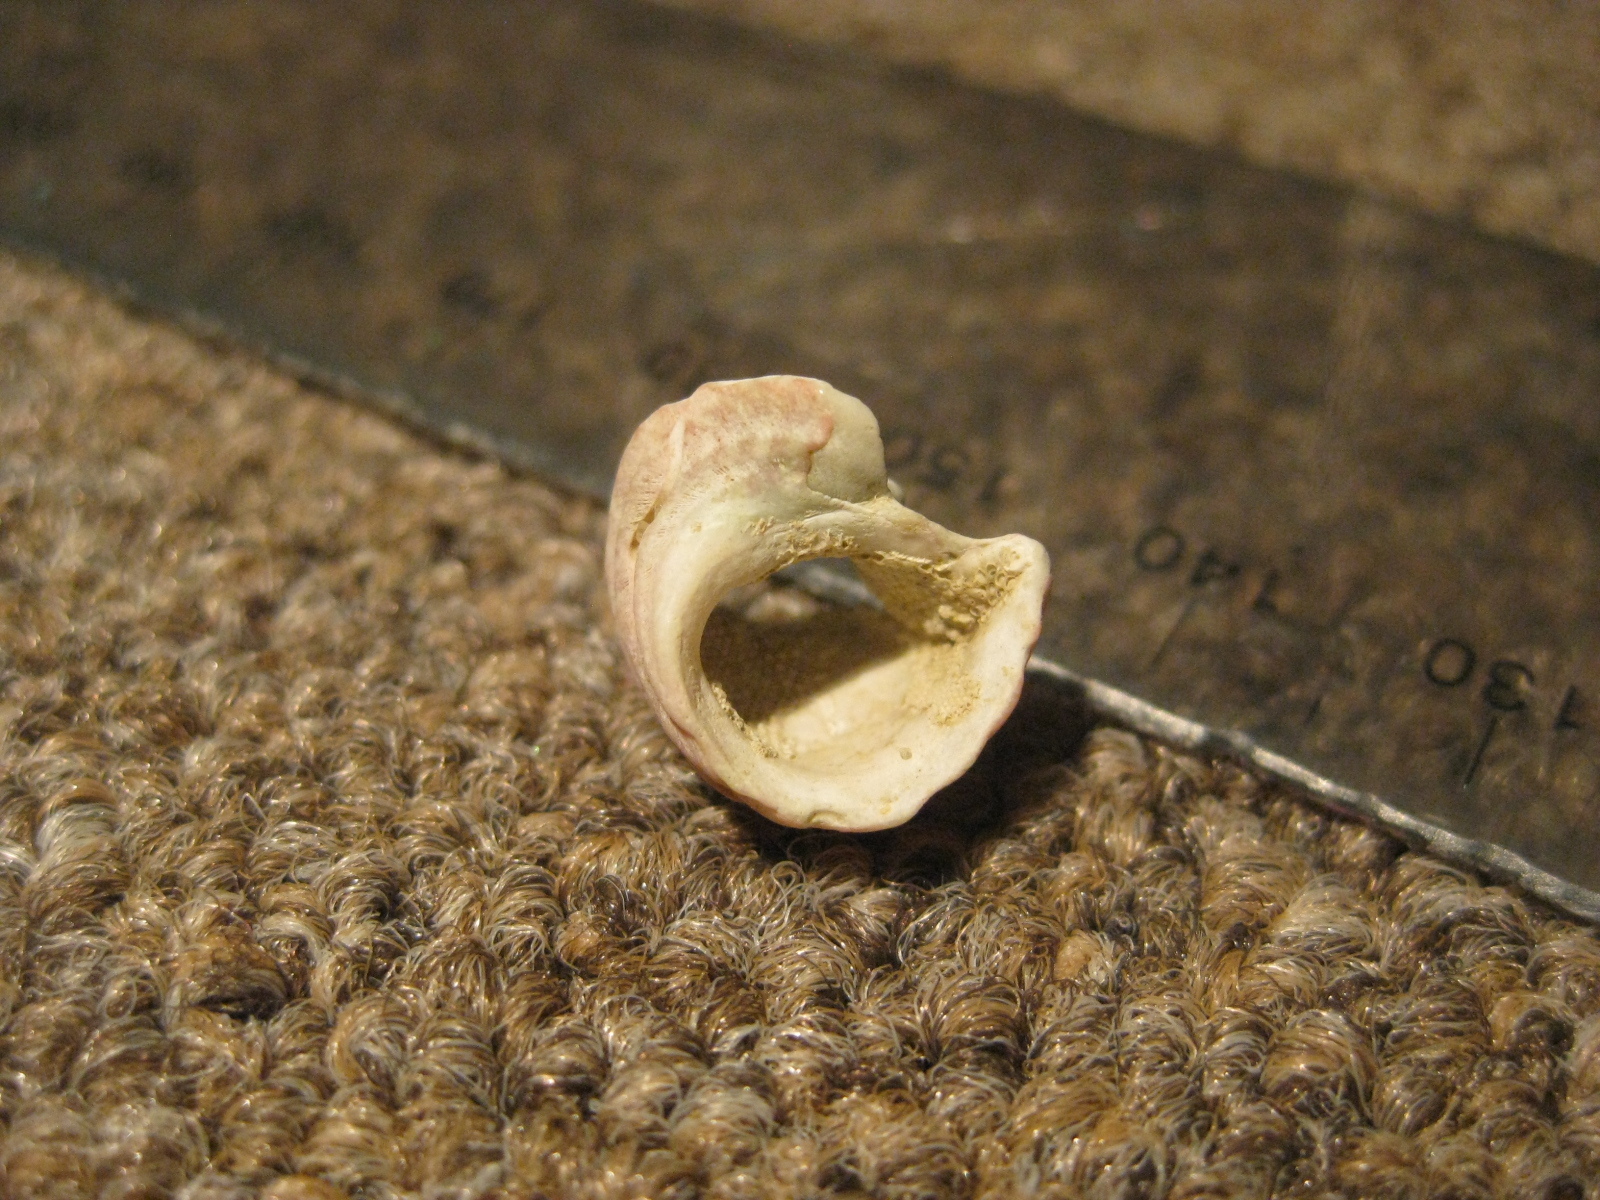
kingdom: Animalia
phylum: Mollusca
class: Gastropoda
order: Trochida
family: Trochidae
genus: Micrelenchus
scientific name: Micrelenchus purpureus
